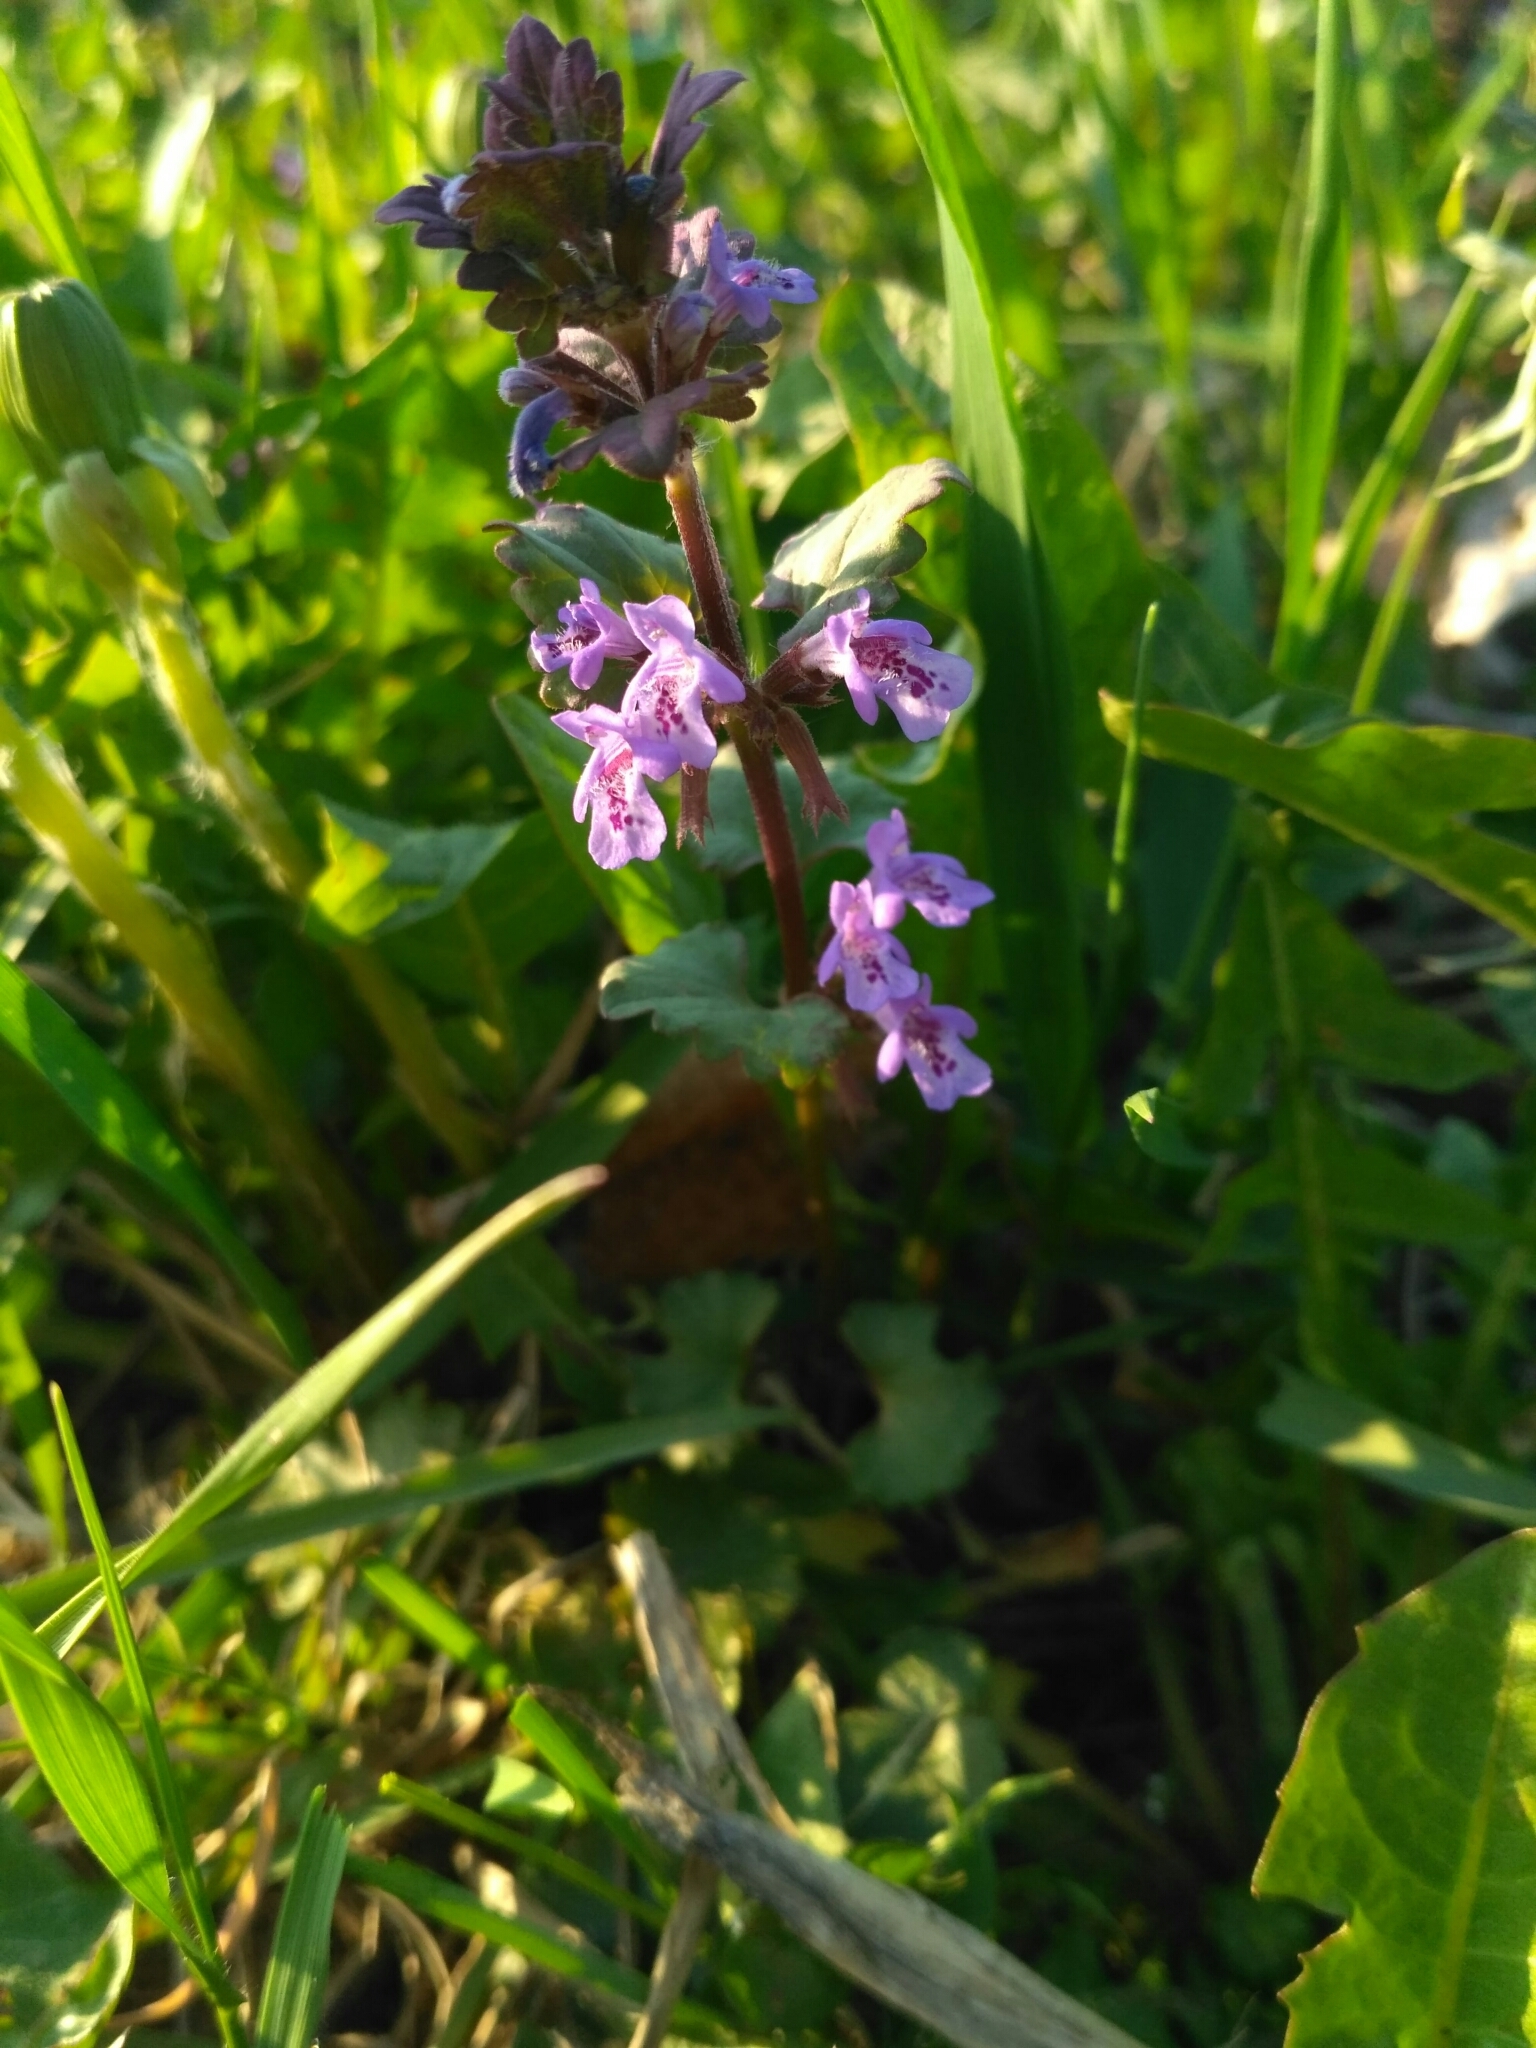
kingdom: Plantae
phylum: Tracheophyta
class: Magnoliopsida
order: Lamiales
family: Lamiaceae
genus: Glechoma
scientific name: Glechoma hederacea
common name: Ground ivy
